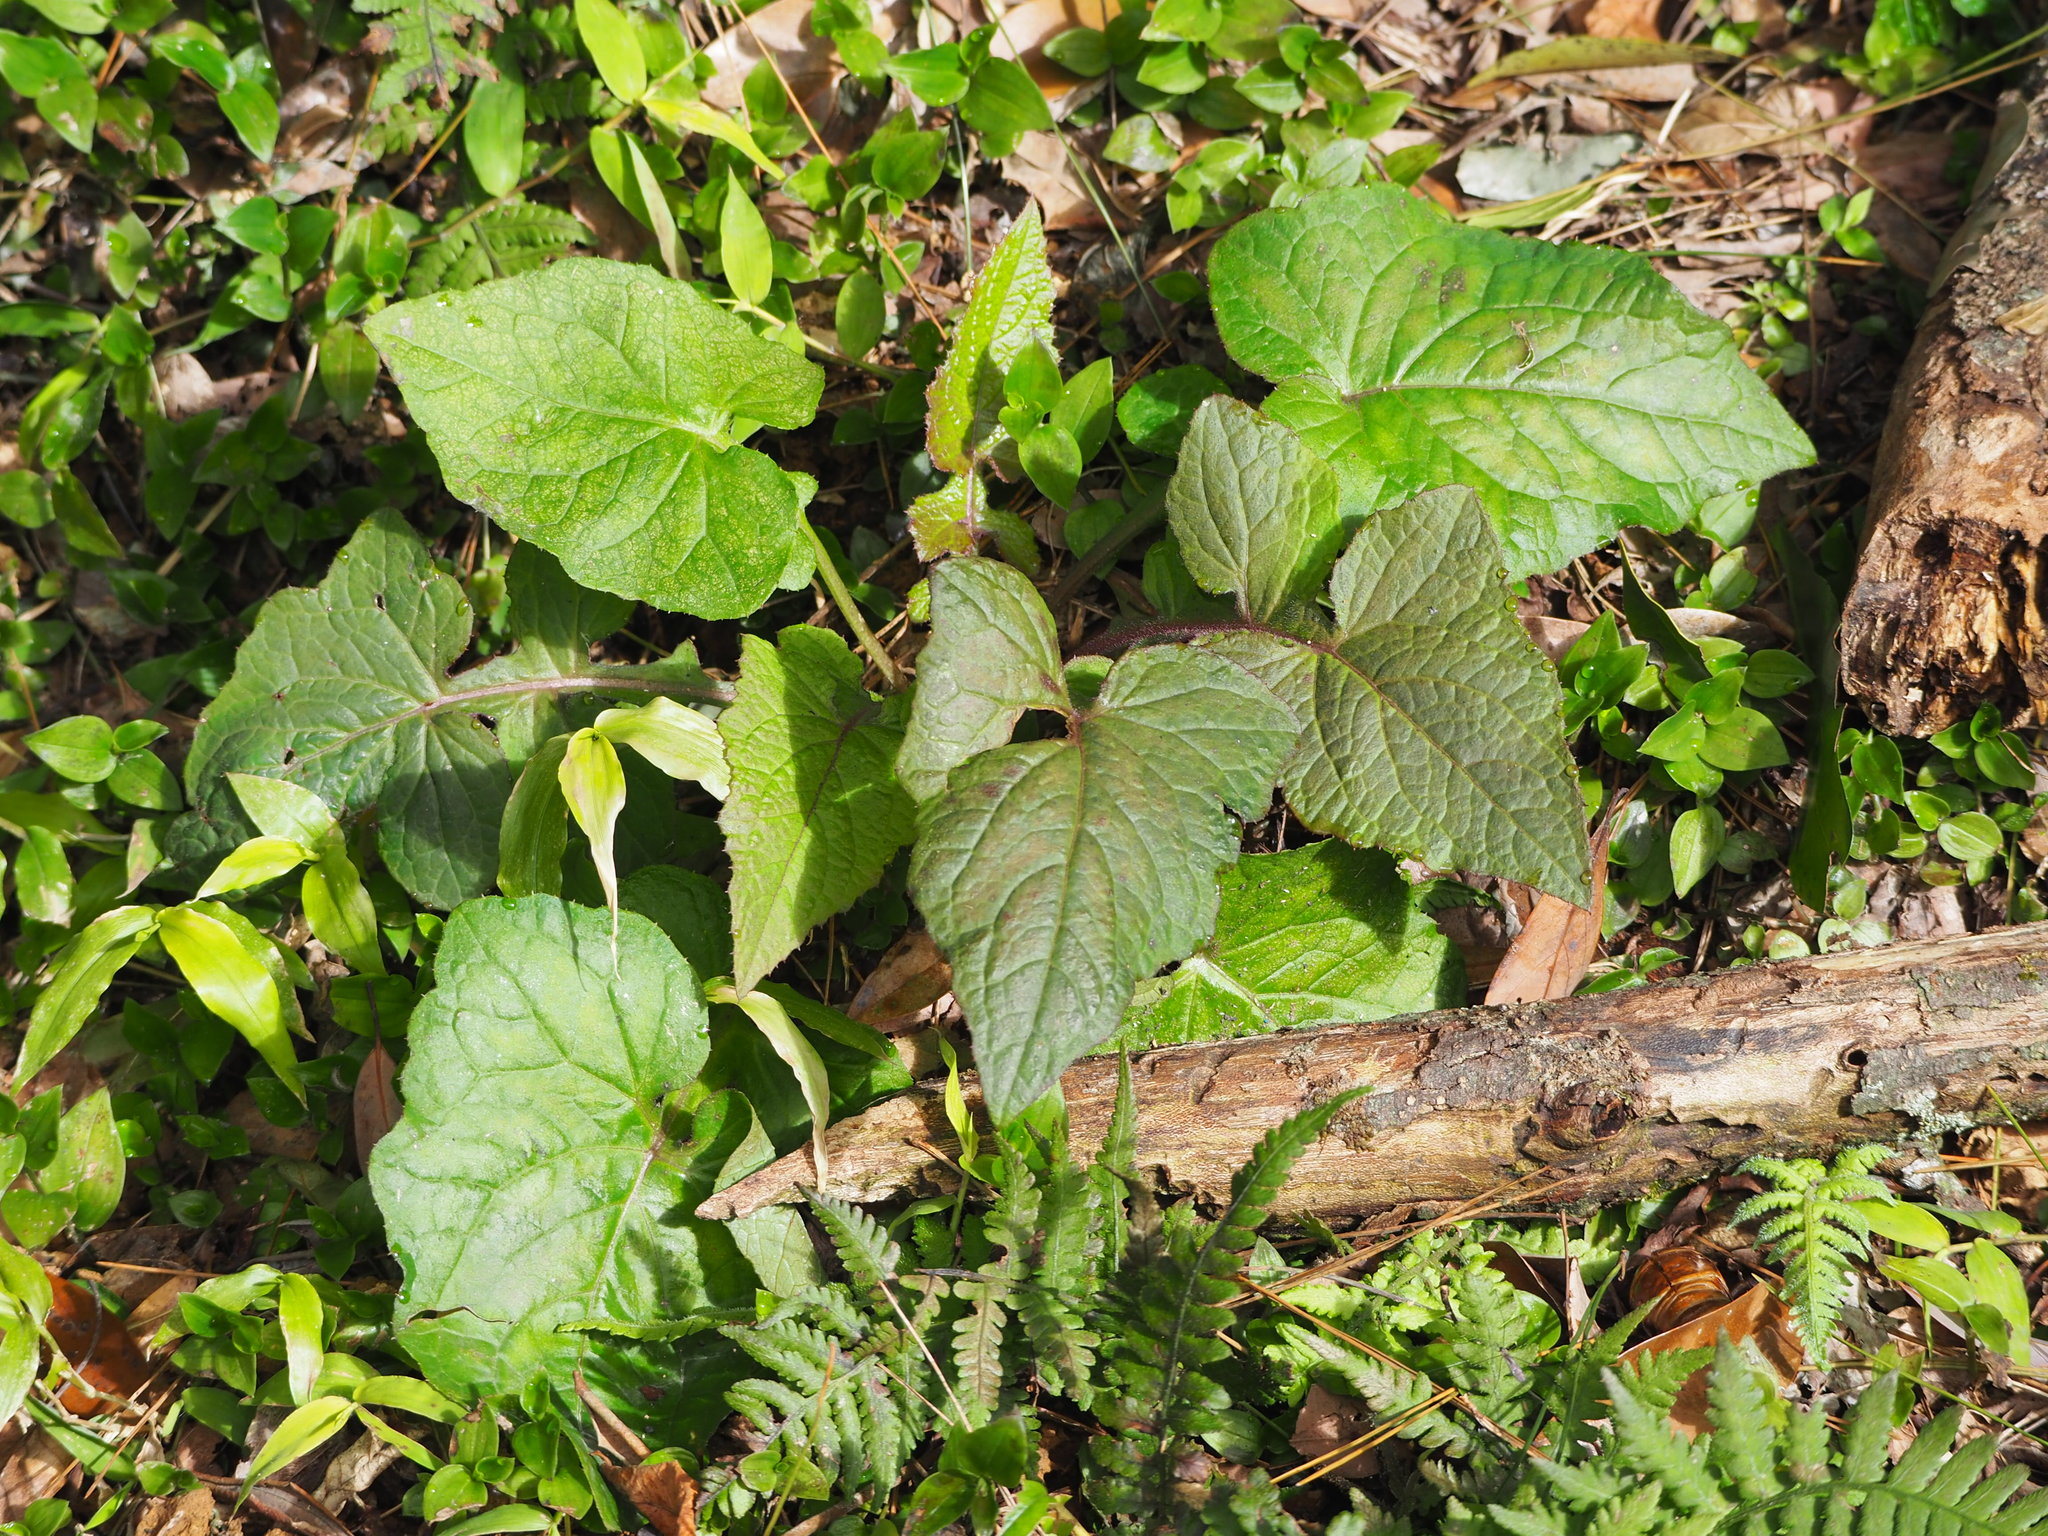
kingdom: Plantae
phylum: Tracheophyta
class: Magnoliopsida
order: Asterales
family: Asteraceae
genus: Paraprenanthes
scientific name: Paraprenanthes sororia
